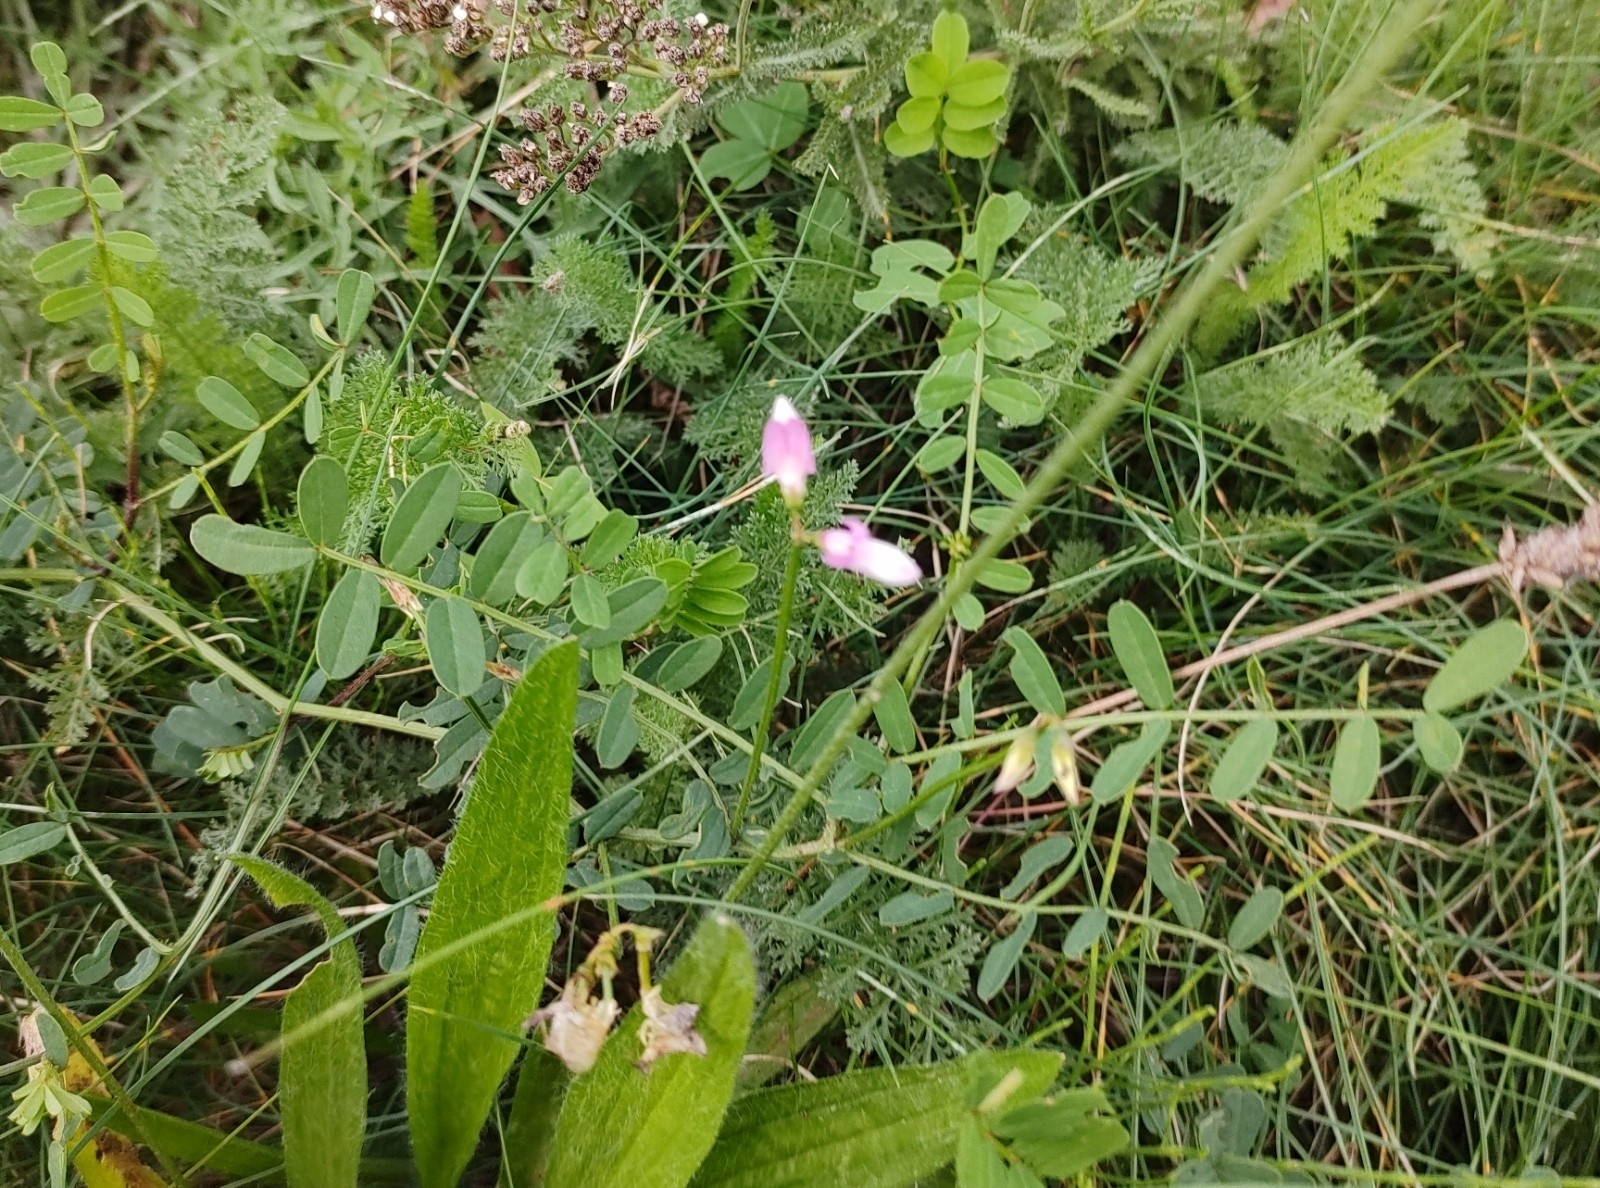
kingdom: Plantae
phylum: Tracheophyta
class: Magnoliopsida
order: Fabales
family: Fabaceae
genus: Coronilla
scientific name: Coronilla varia
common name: Crownvetch
